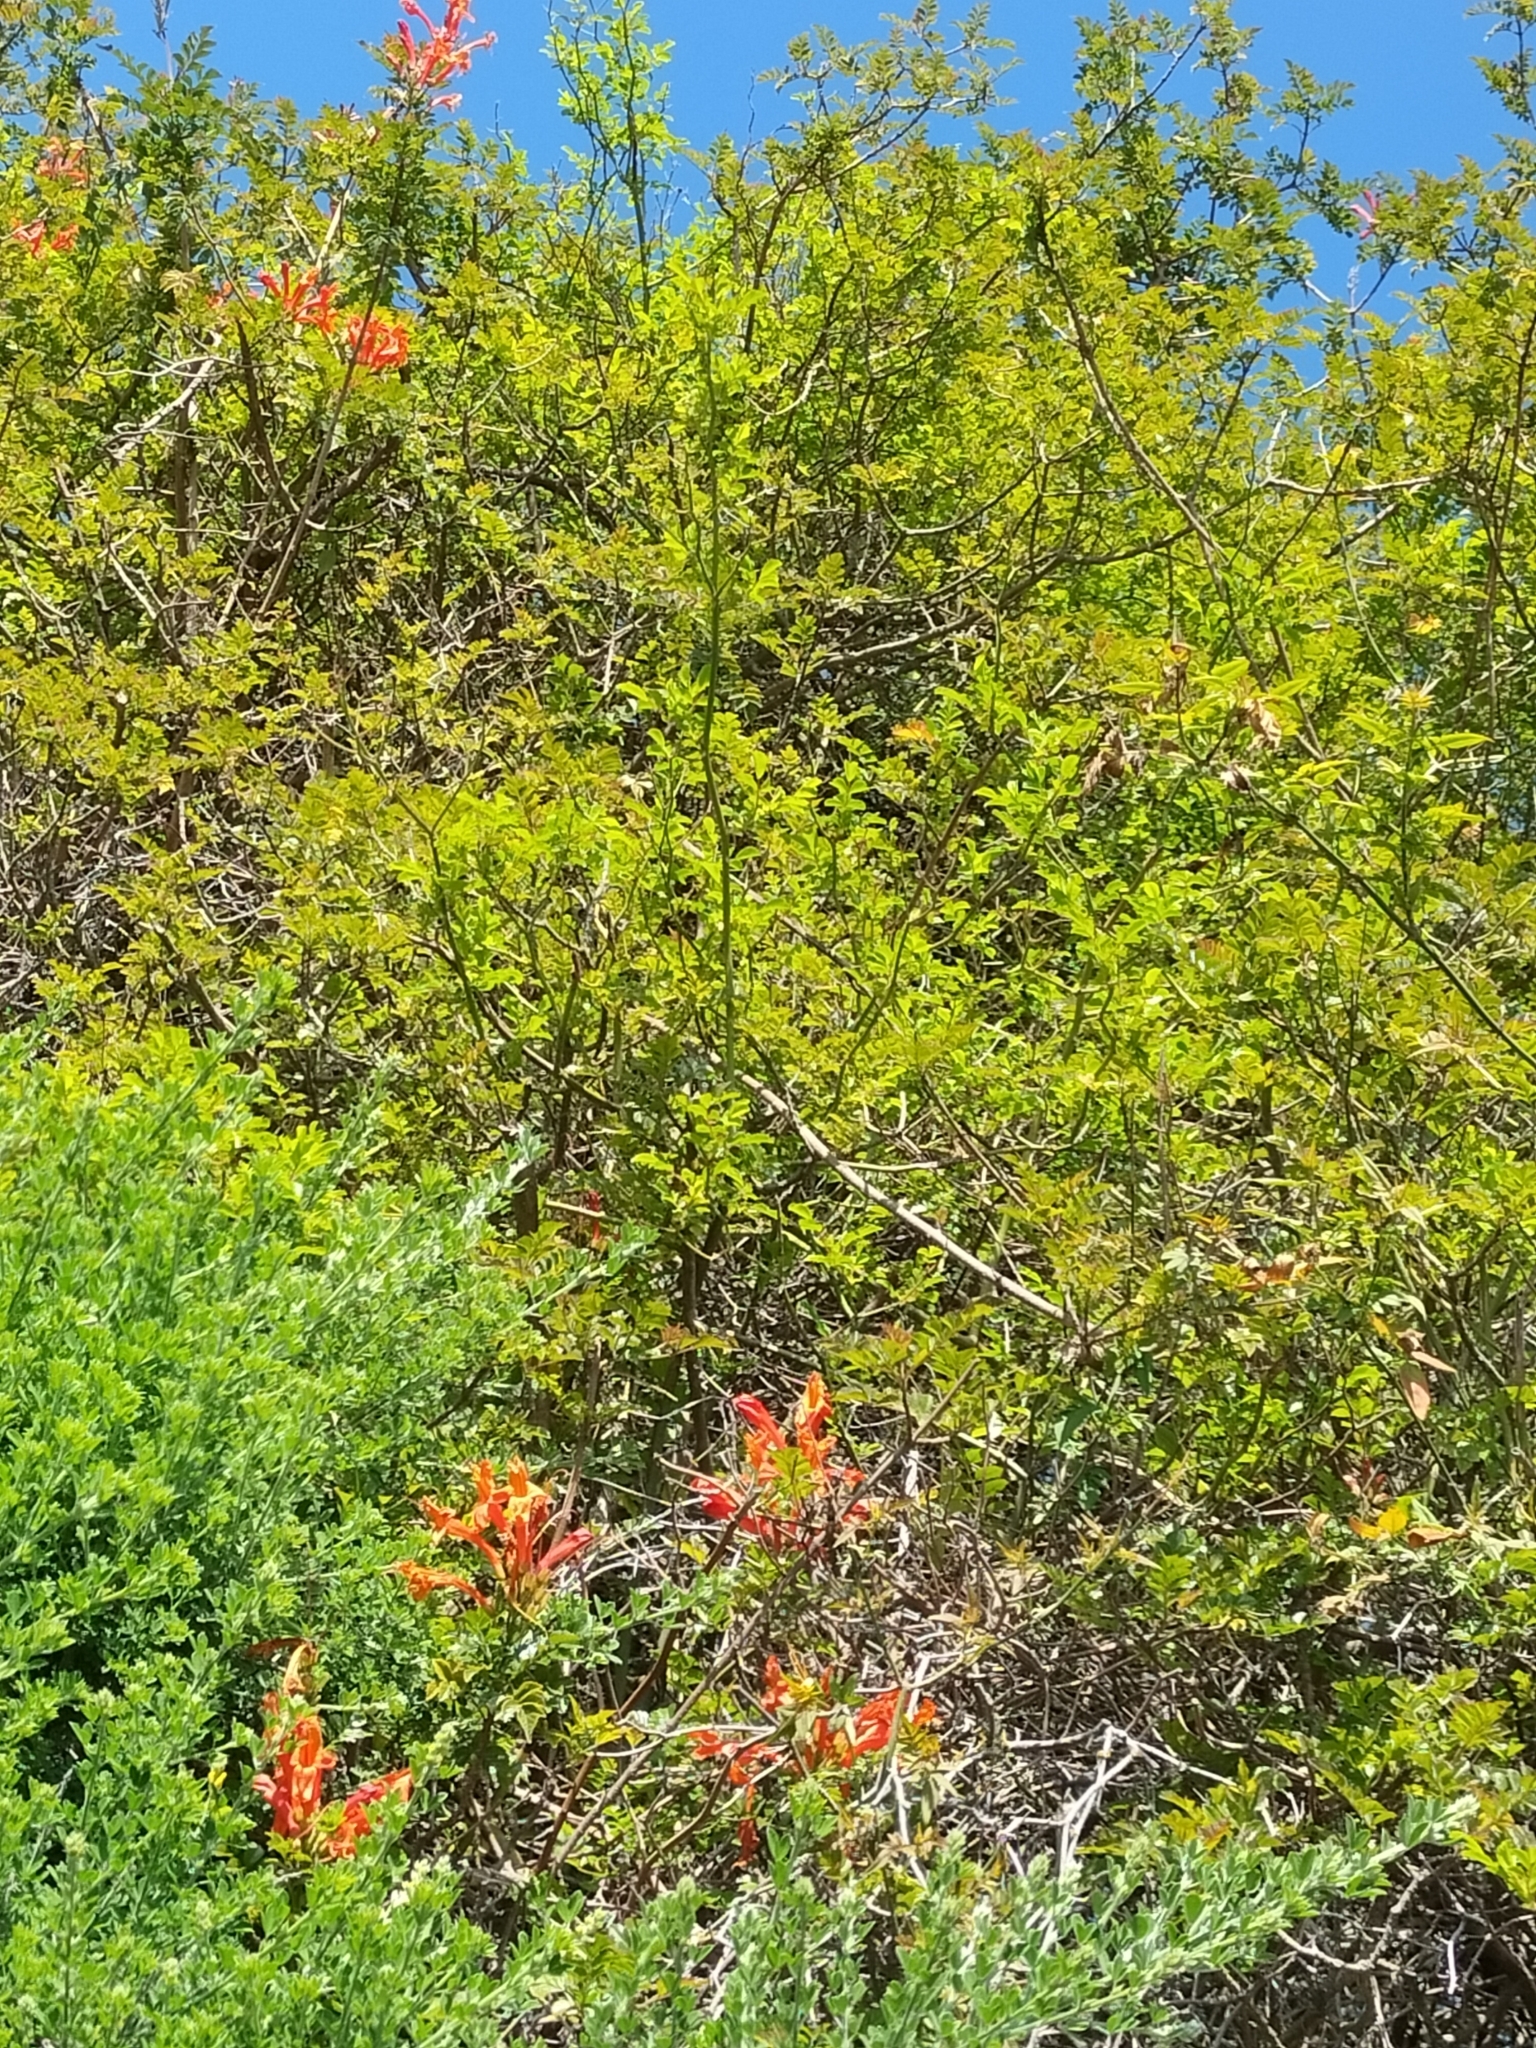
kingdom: Plantae
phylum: Tracheophyta
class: Magnoliopsida
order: Lamiales
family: Bignoniaceae
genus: Tecomaria
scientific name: Tecomaria capensis
